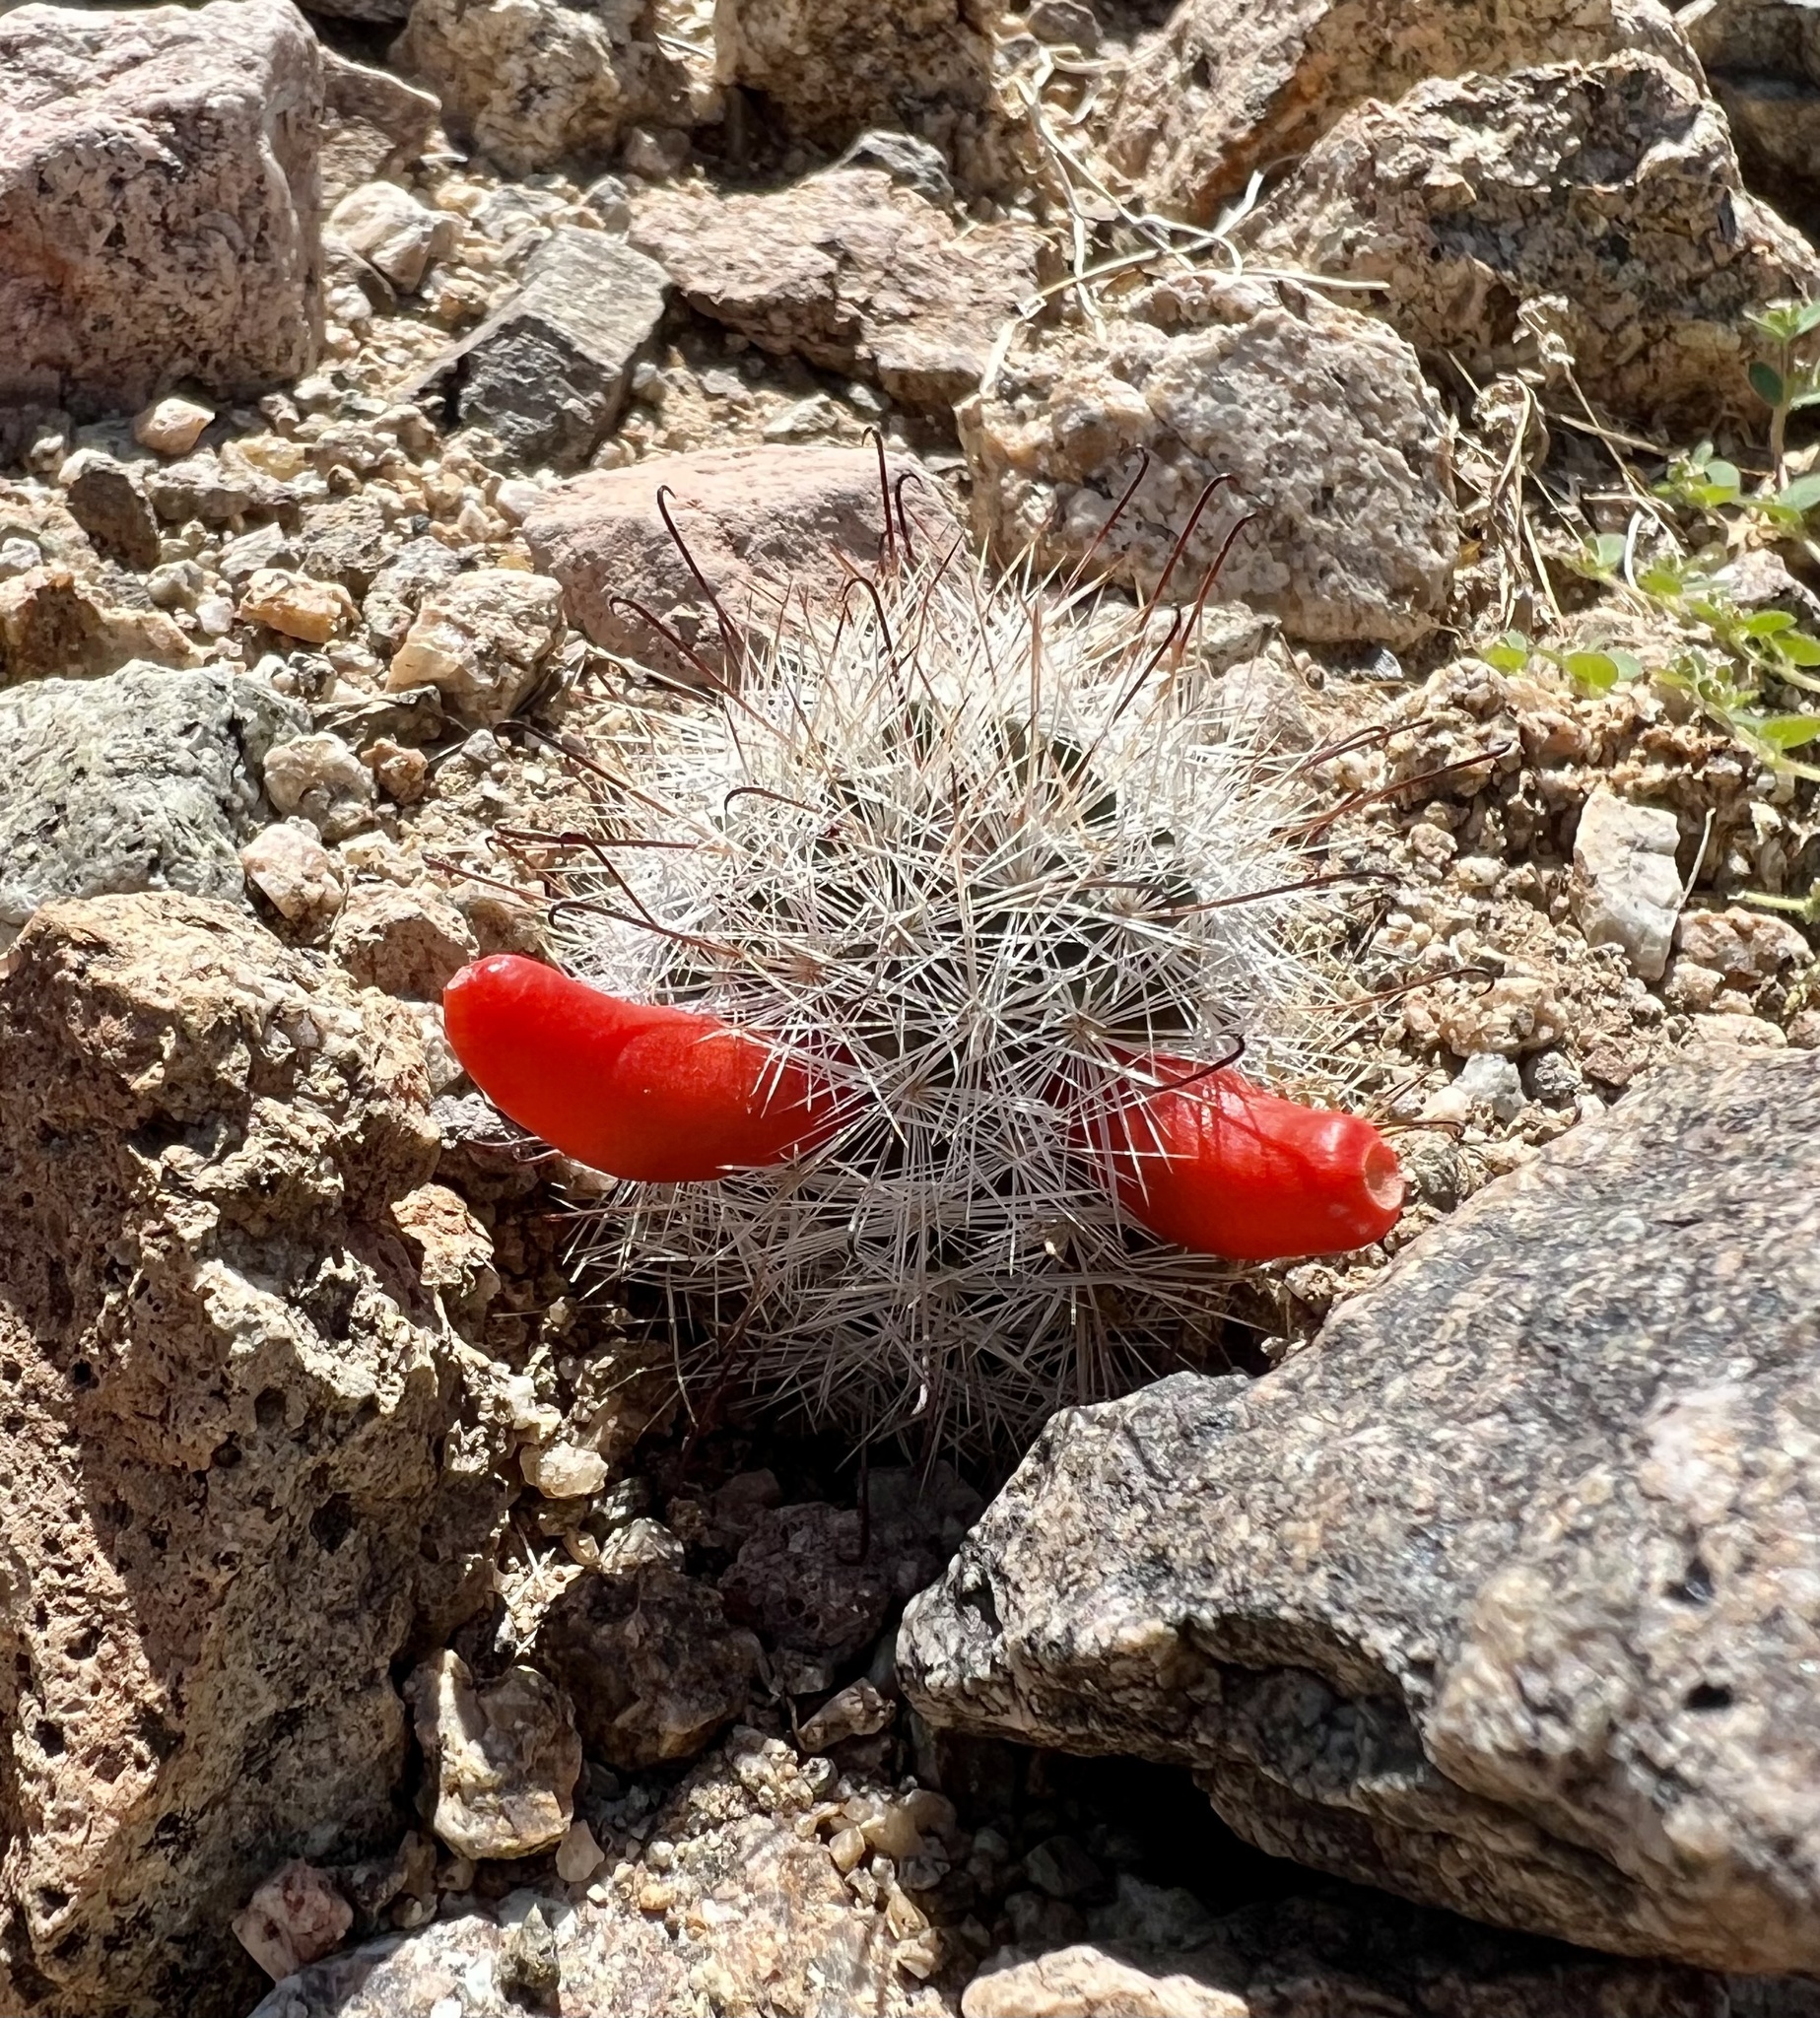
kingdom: Plantae
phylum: Tracheophyta
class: Magnoliopsida
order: Caryophyllales
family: Cactaceae
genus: Cochemiea
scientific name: Cochemiea tetrancistra
